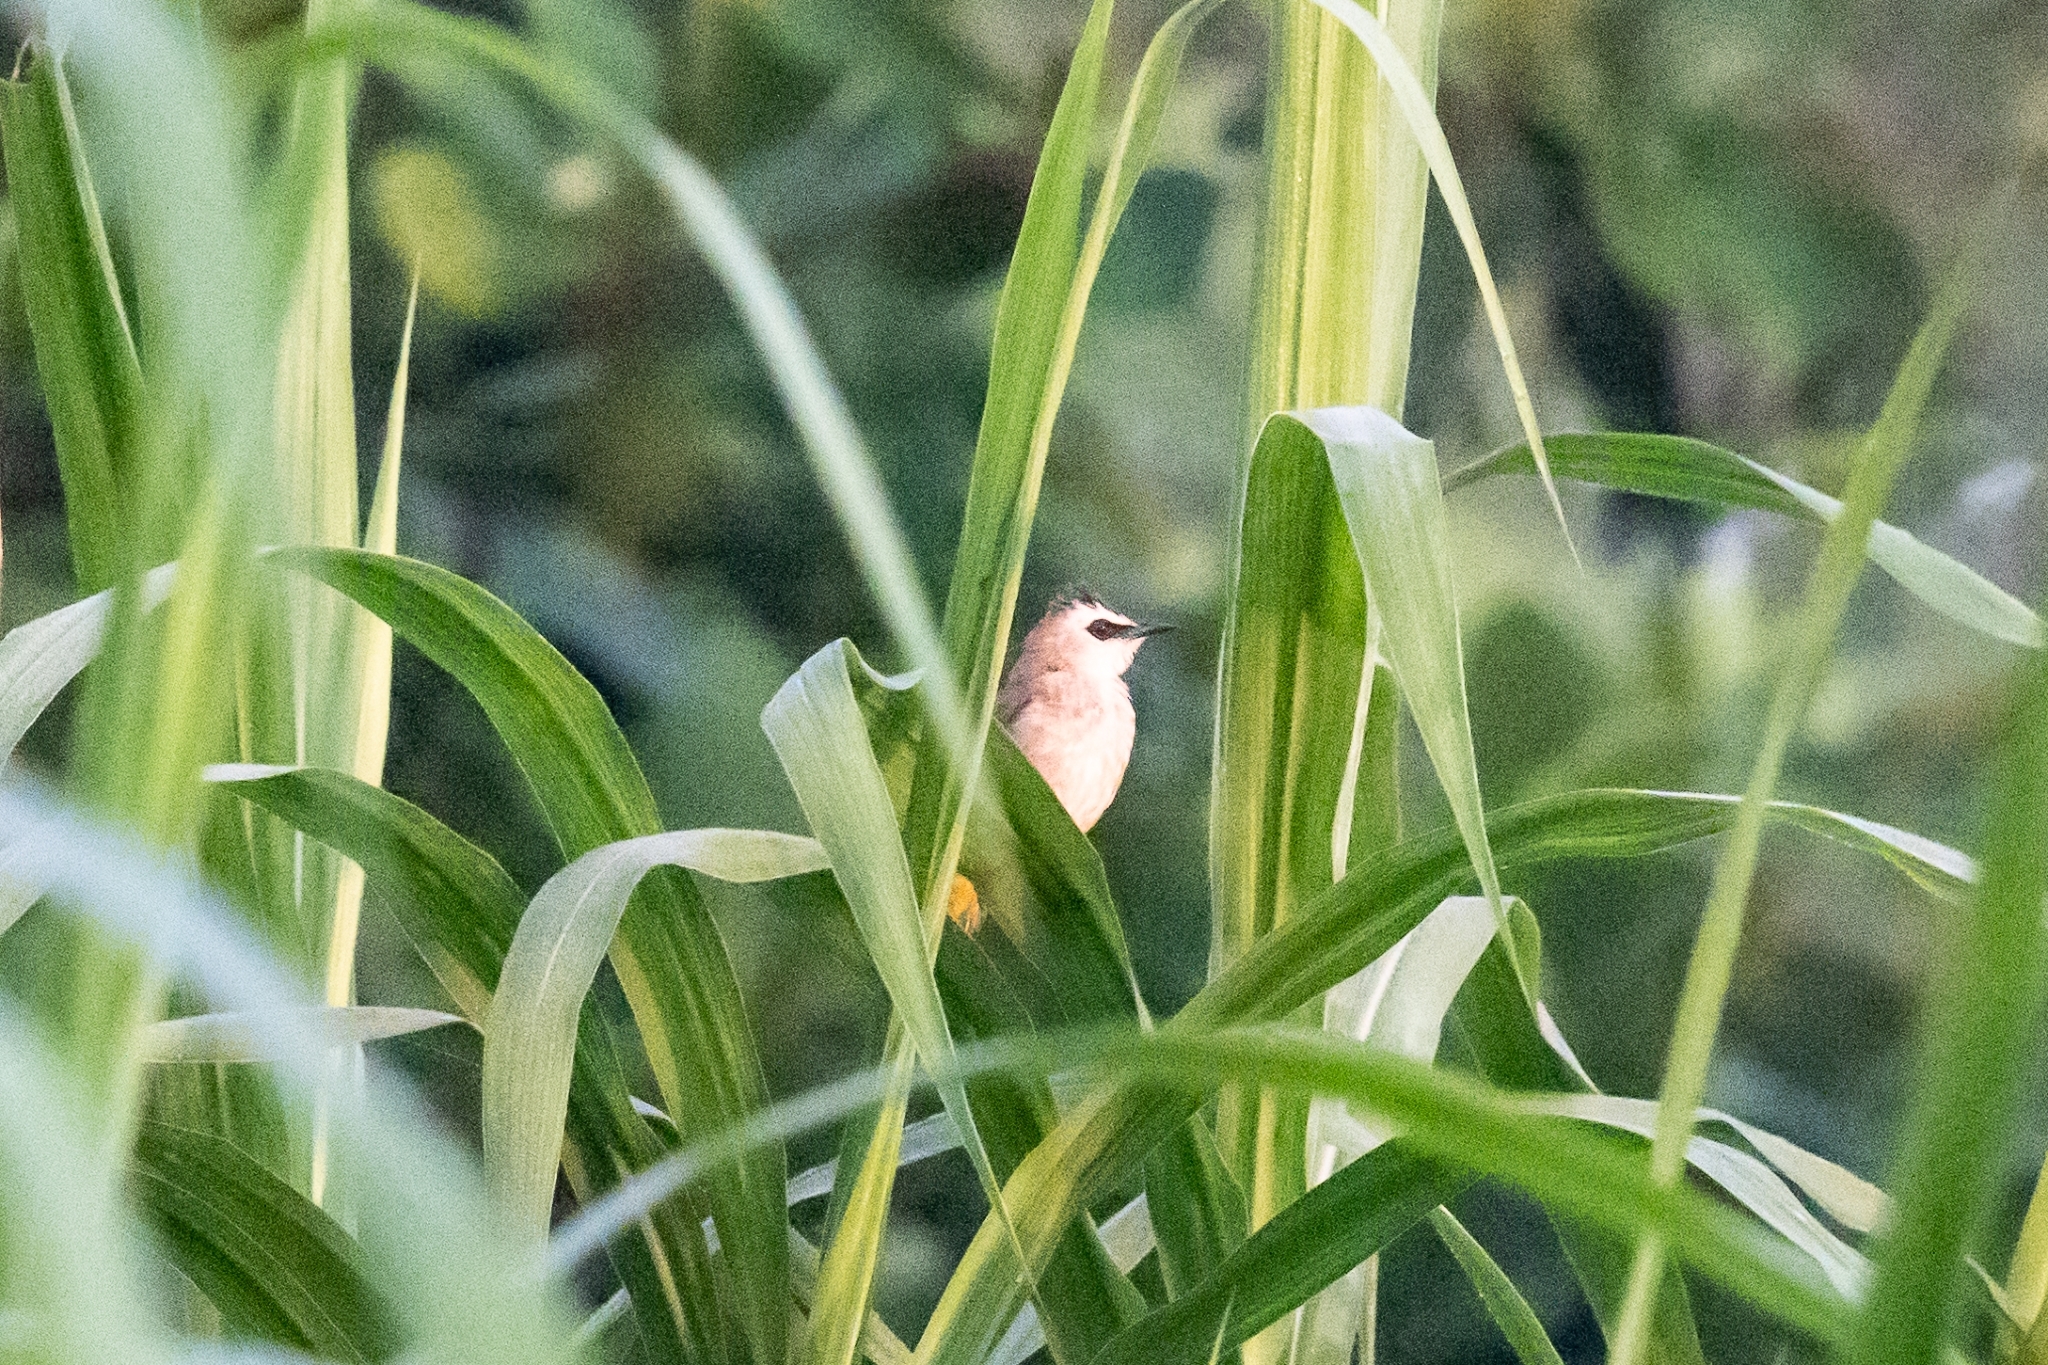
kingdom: Animalia
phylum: Chordata
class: Aves
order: Passeriformes
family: Pycnonotidae
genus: Pycnonotus
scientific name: Pycnonotus goiavier
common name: Yellow-vented bulbul
